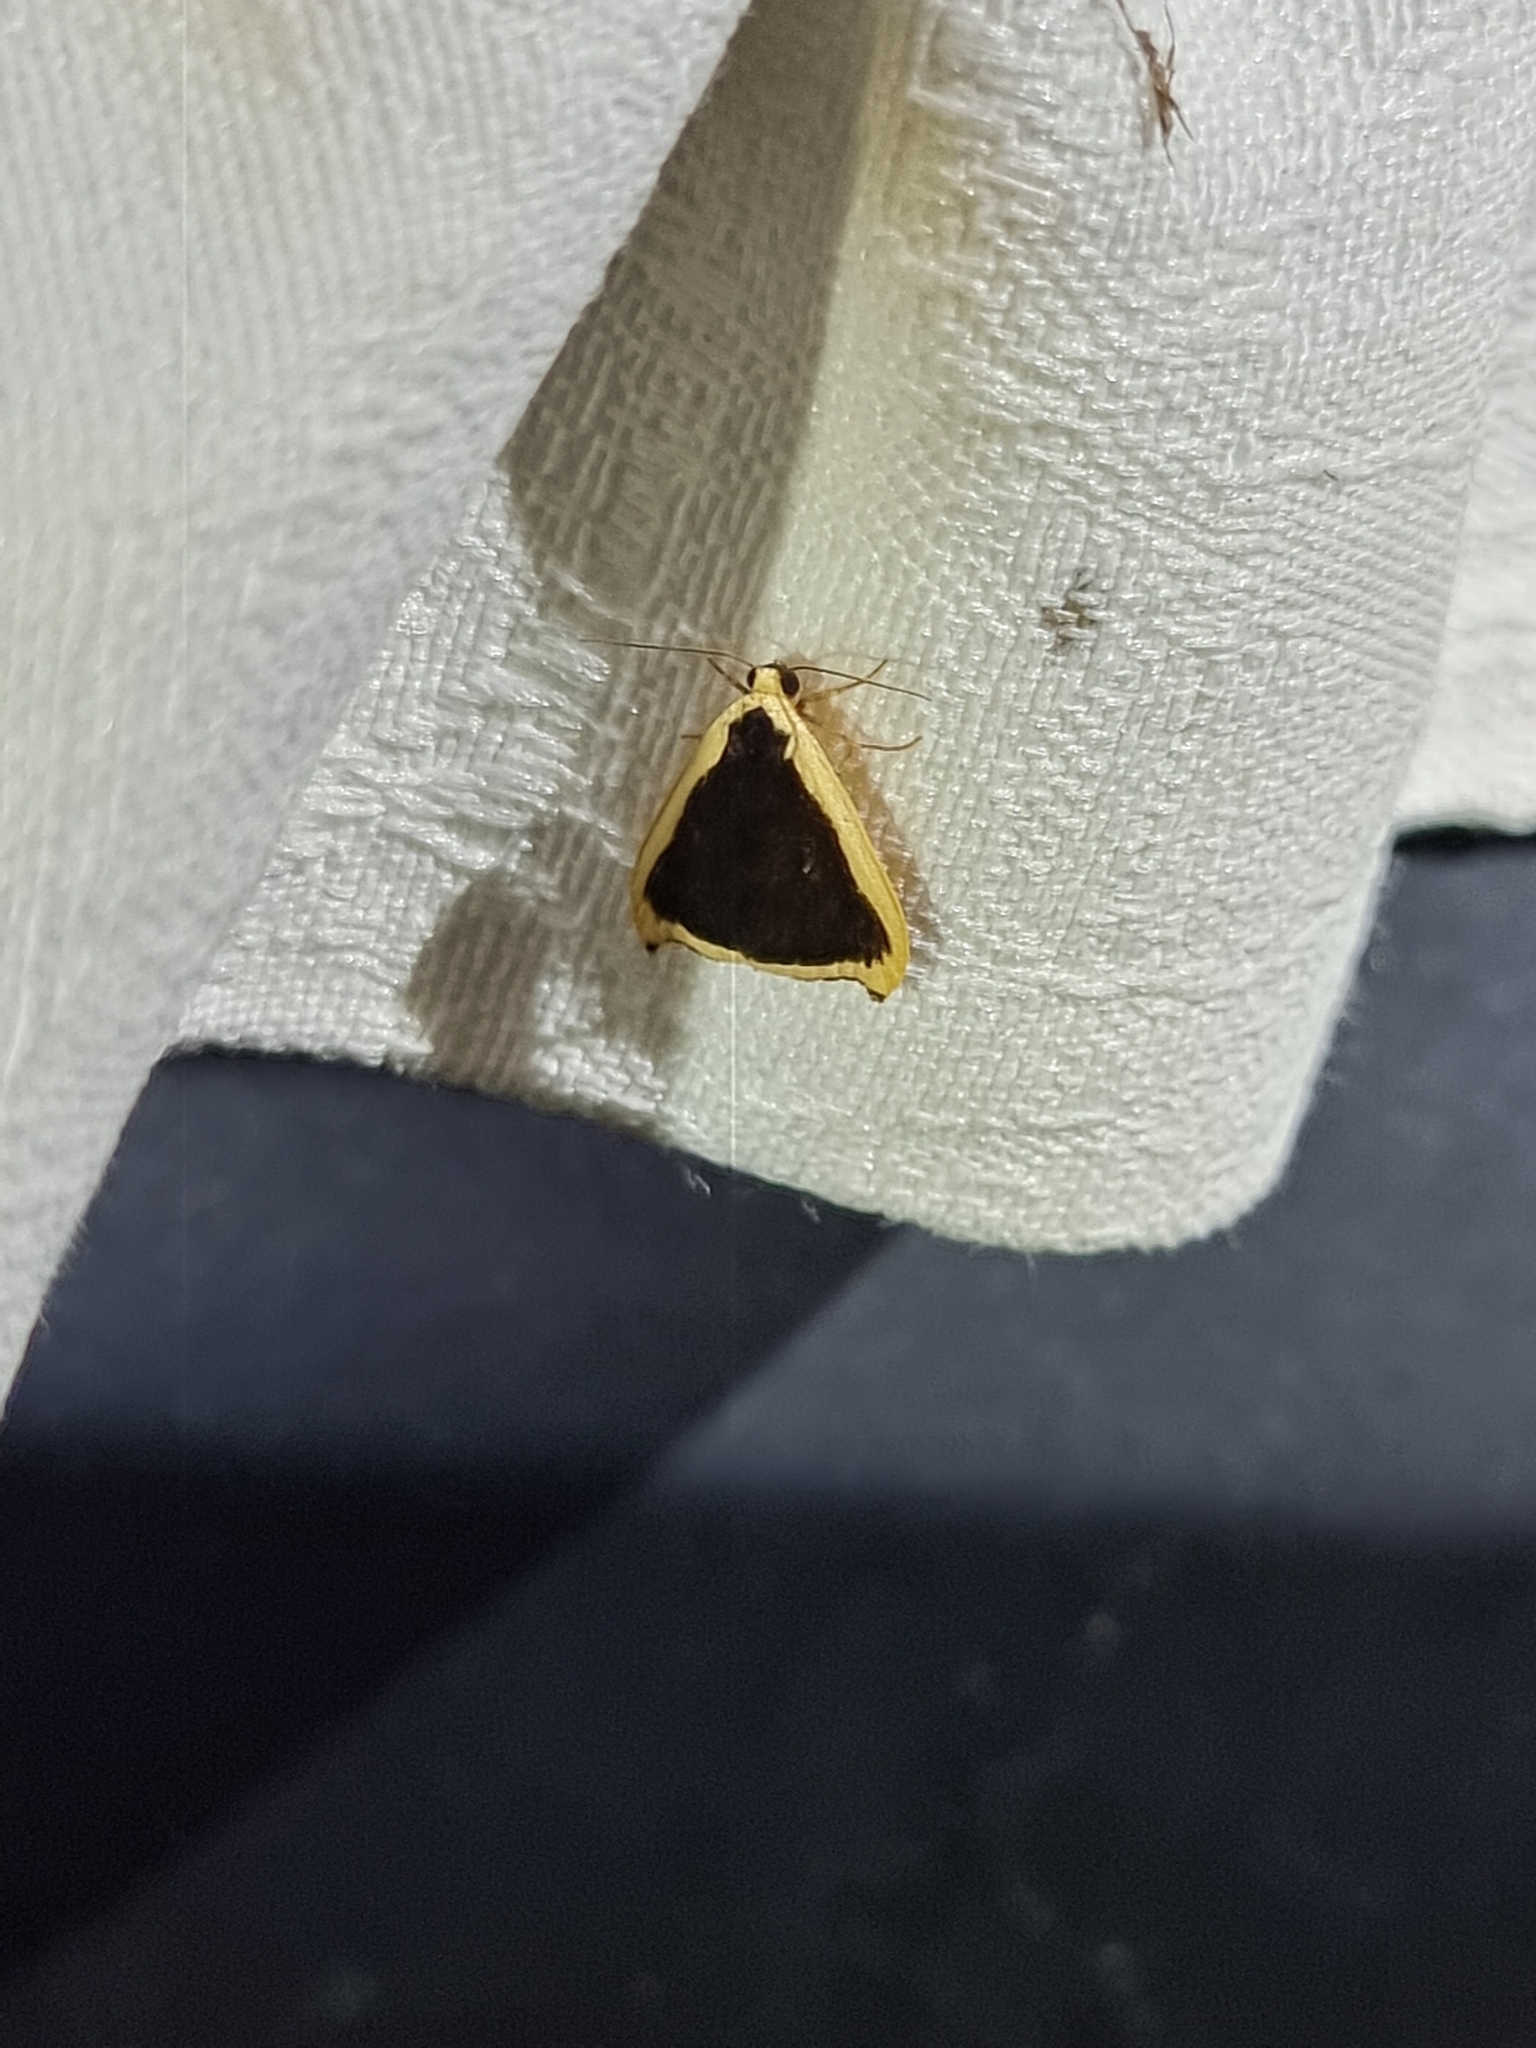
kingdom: Animalia
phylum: Arthropoda
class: Insecta
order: Lepidoptera
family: Erebidae
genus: Termessa
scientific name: Termessa conographa
